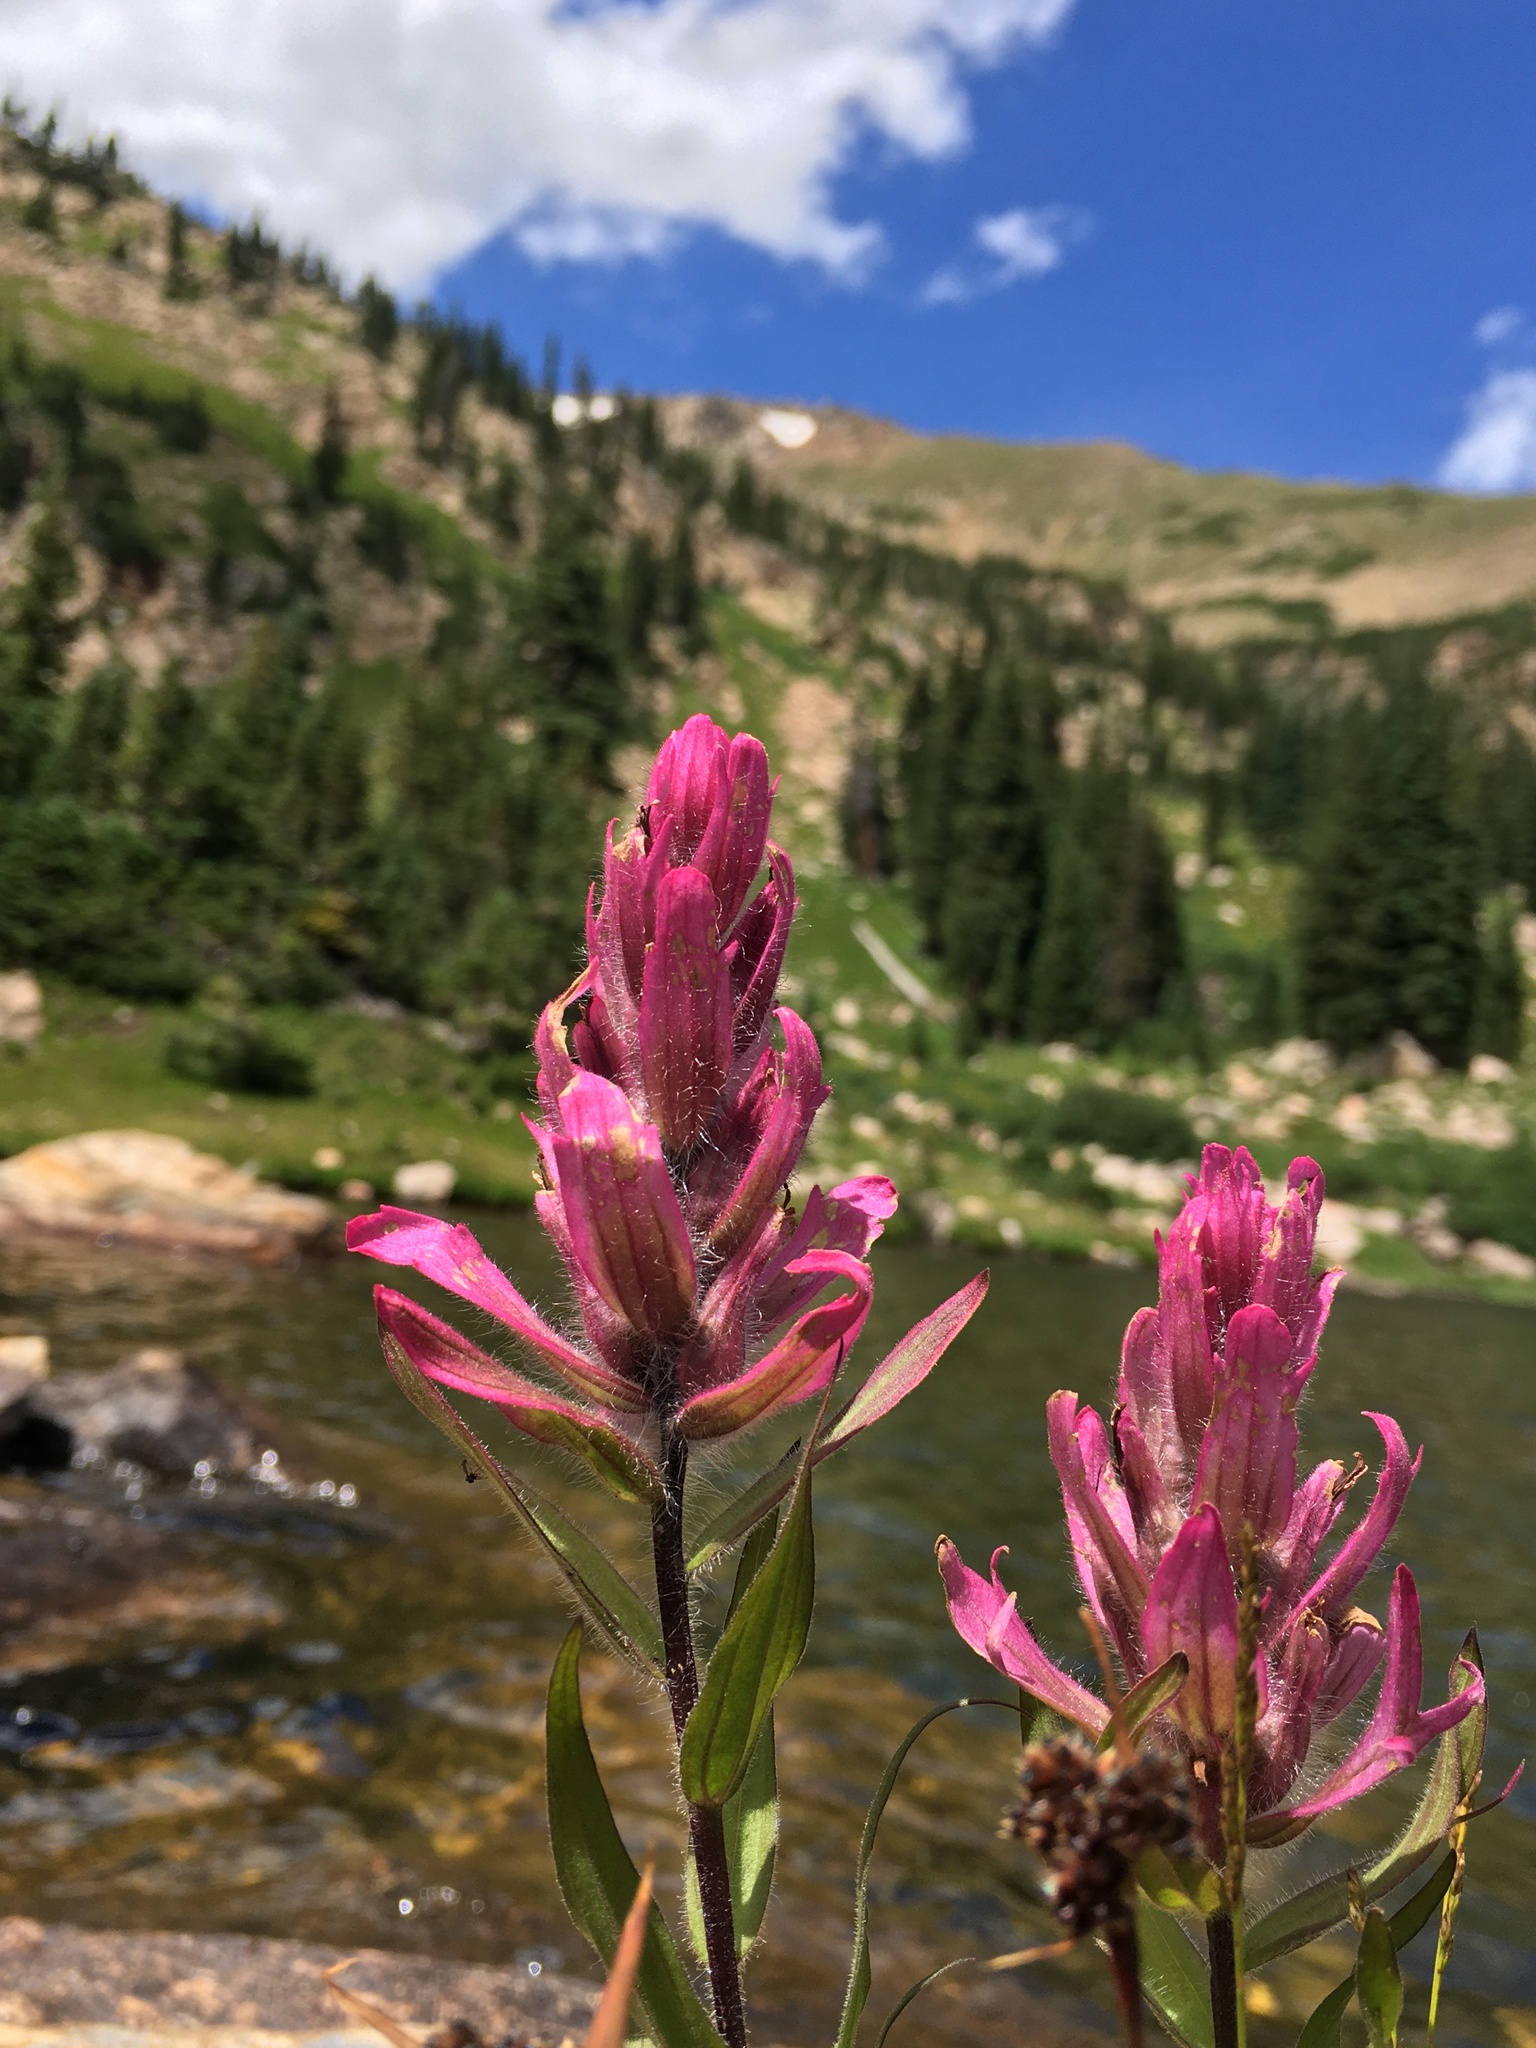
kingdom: Plantae
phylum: Tracheophyta
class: Magnoliopsida
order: Lamiales
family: Orobanchaceae
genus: Castilleja
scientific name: Castilleja rhexifolia
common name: Rocky mountain paintbrush
